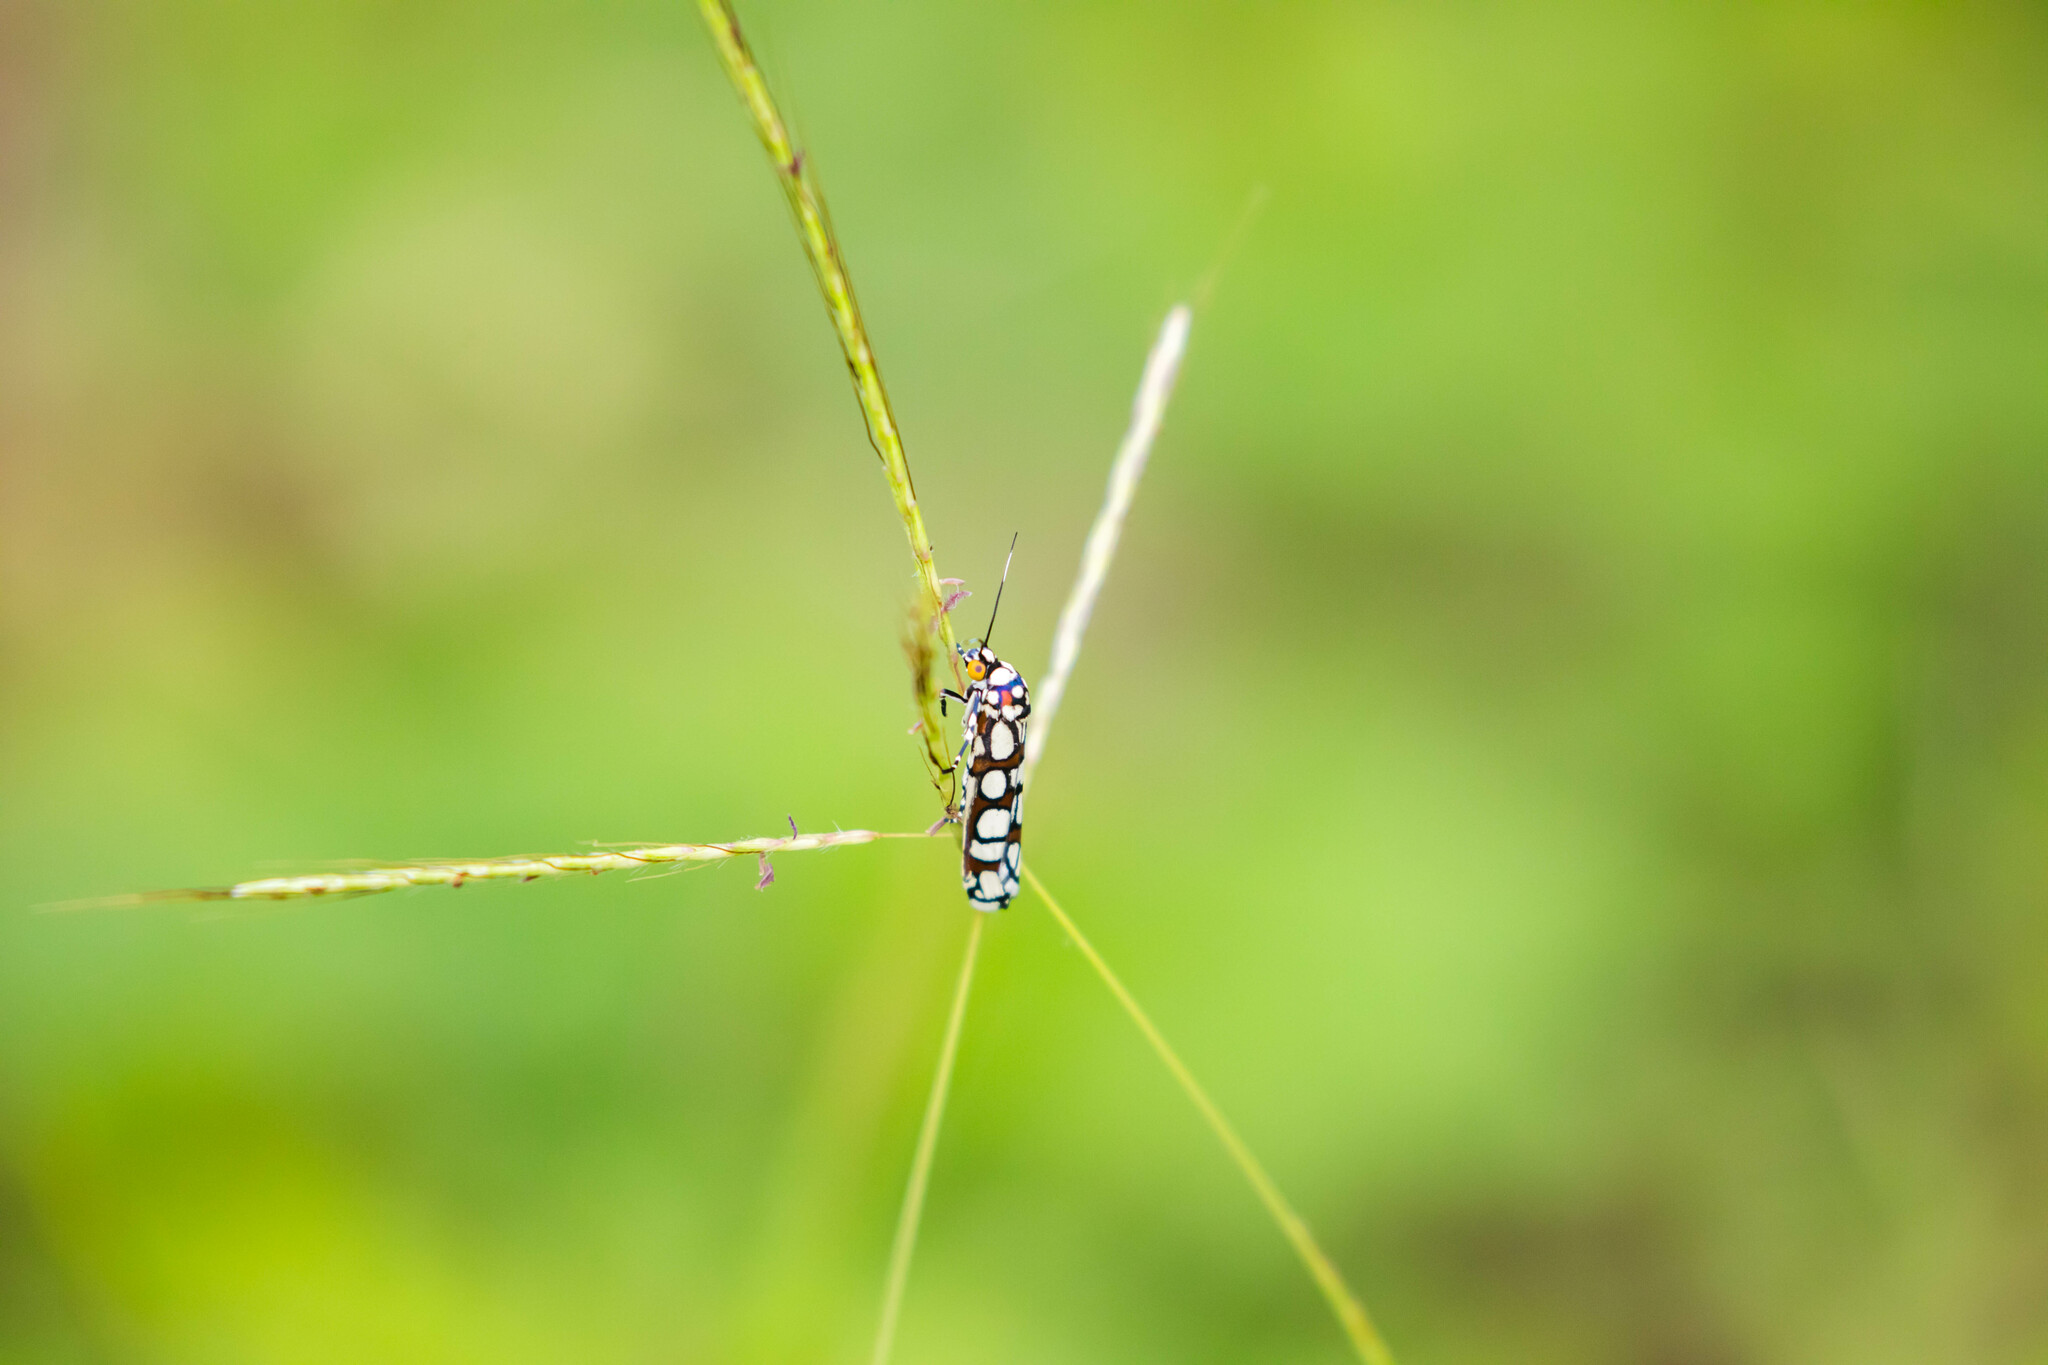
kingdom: Animalia
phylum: Arthropoda
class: Insecta
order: Lepidoptera
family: Noctuidae
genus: Cydosia
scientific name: Cydosia nobilitella
